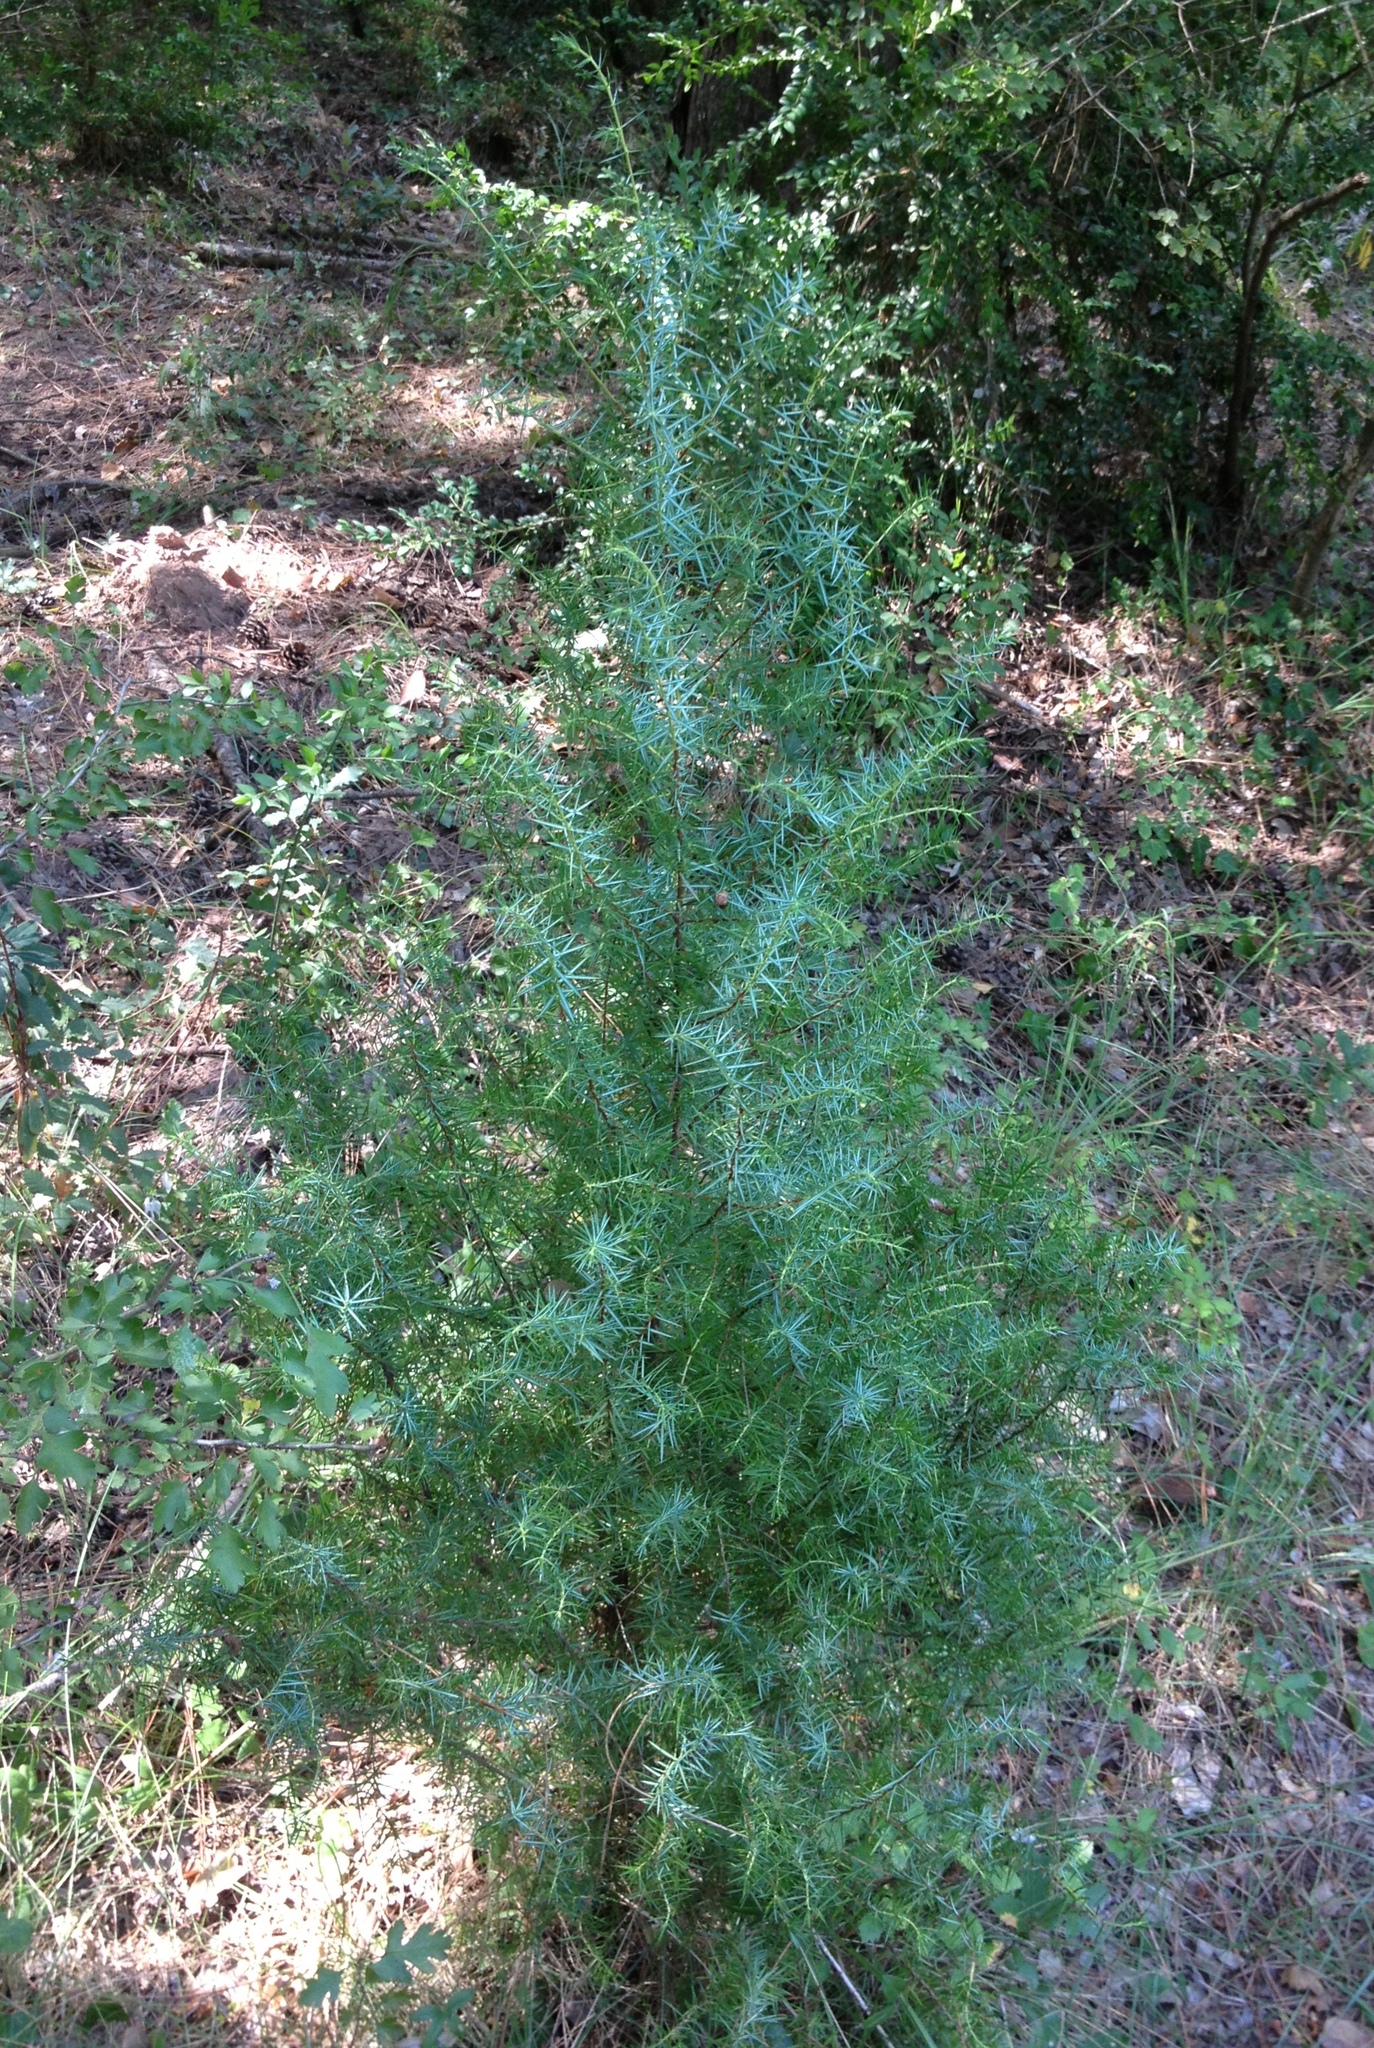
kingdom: Plantae
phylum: Tracheophyta
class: Pinopsida
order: Pinales
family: Cupressaceae
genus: Juniperus
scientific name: Juniperus communis
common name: Common juniper
